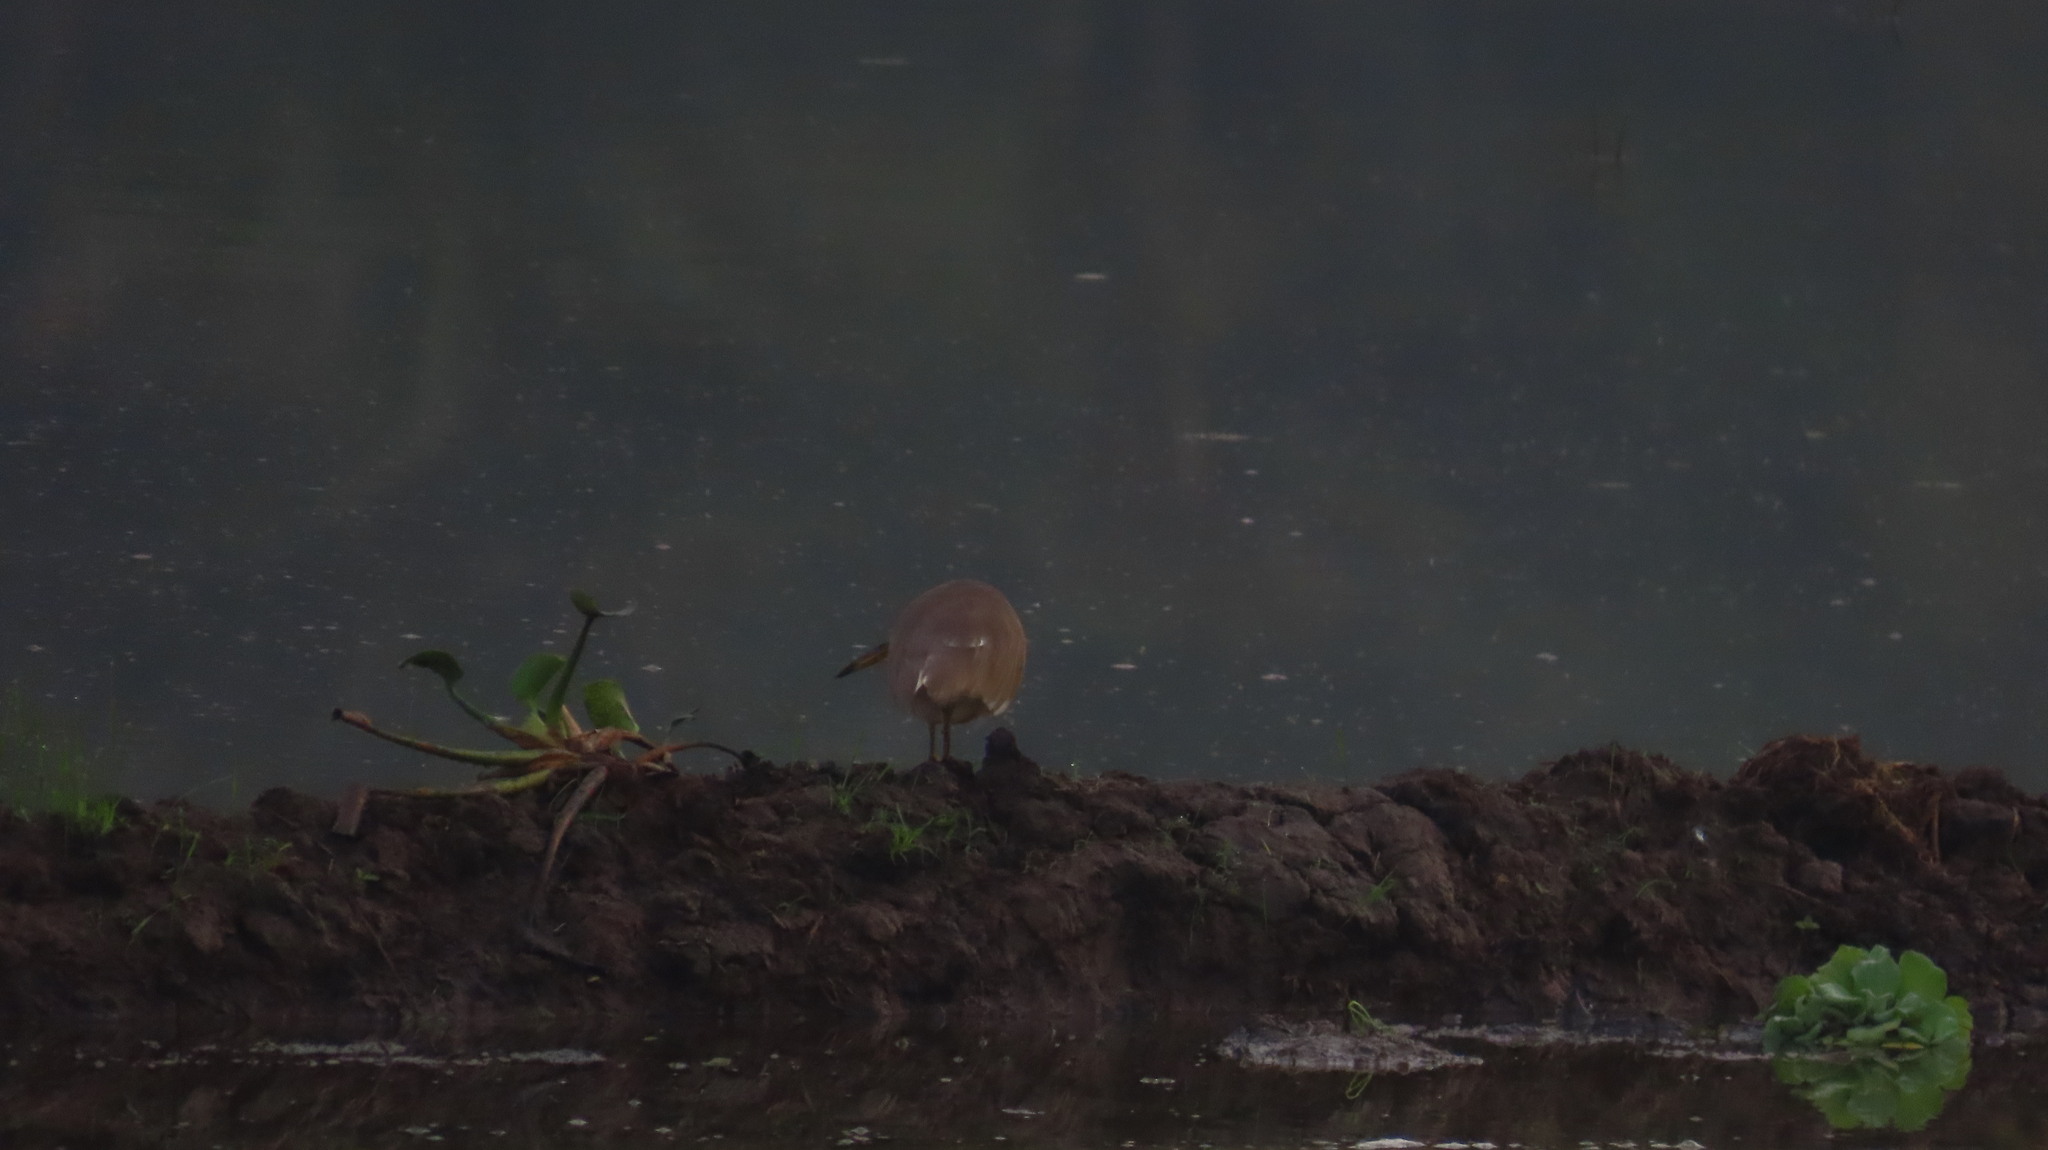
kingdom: Animalia
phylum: Chordata
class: Aves
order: Pelecaniformes
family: Ardeidae
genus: Ardeola
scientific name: Ardeola grayii
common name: Indian pond heron
